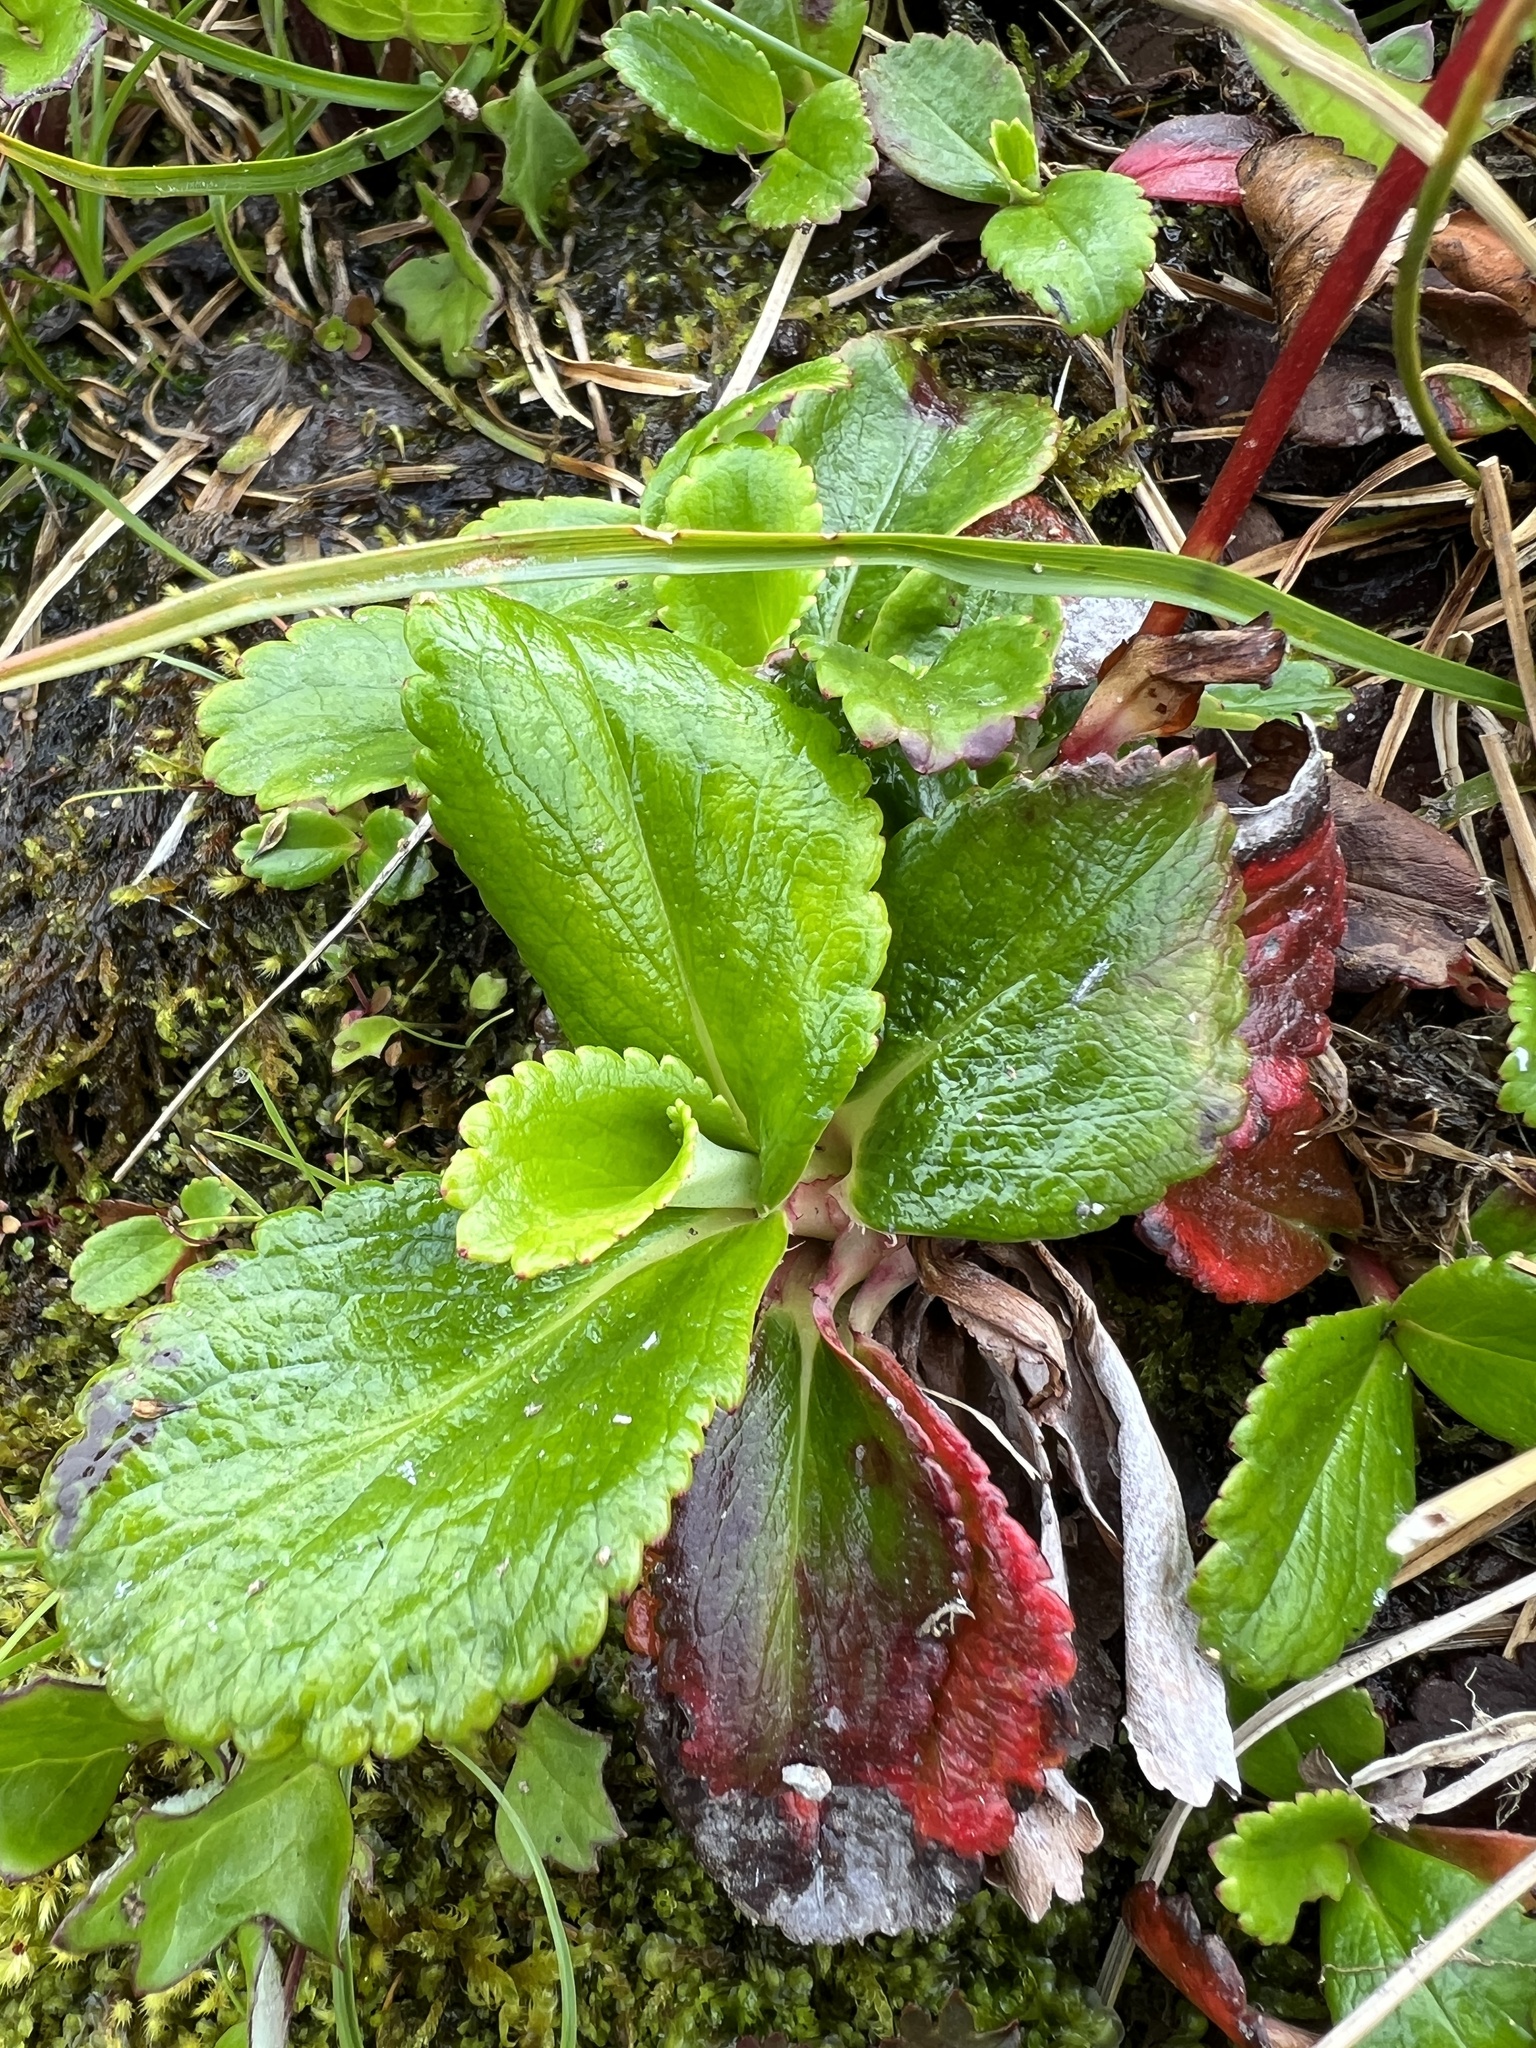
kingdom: Plantae
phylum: Tracheophyta
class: Magnoliopsida
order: Saxifragales
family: Saxifragaceae
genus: Leptarrhena
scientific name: Leptarrhena pyrolifolia
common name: Leatherleaf-saxifrage
